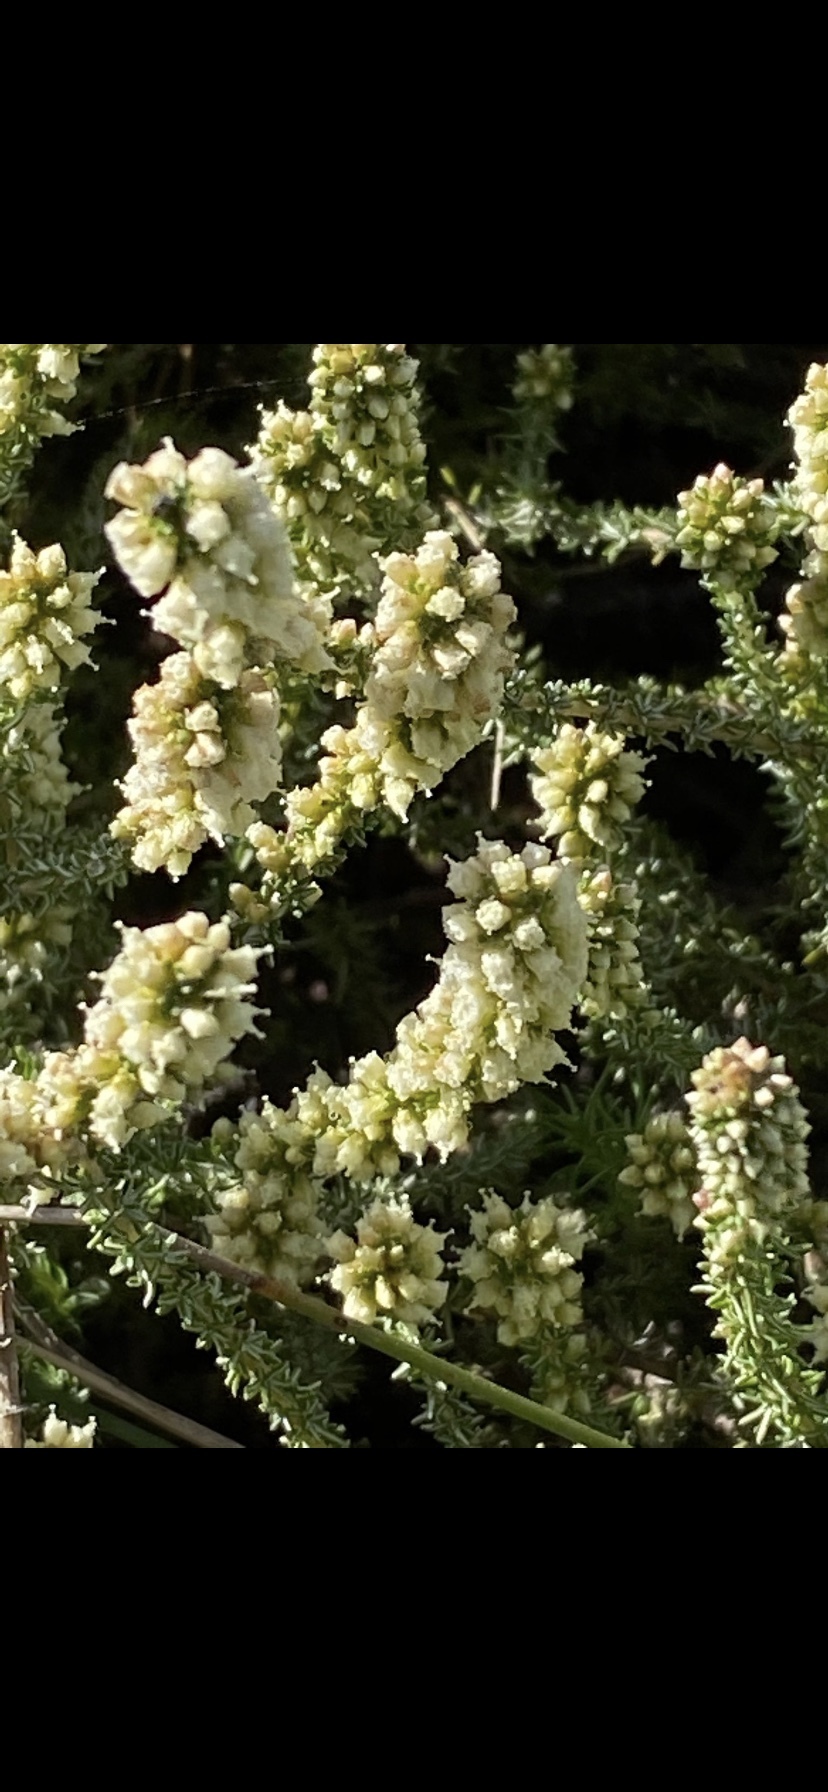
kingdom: Plantae
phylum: Tracheophyta
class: Magnoliopsida
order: Asterales
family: Asteraceae
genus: Ifloga
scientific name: Ifloga repens
